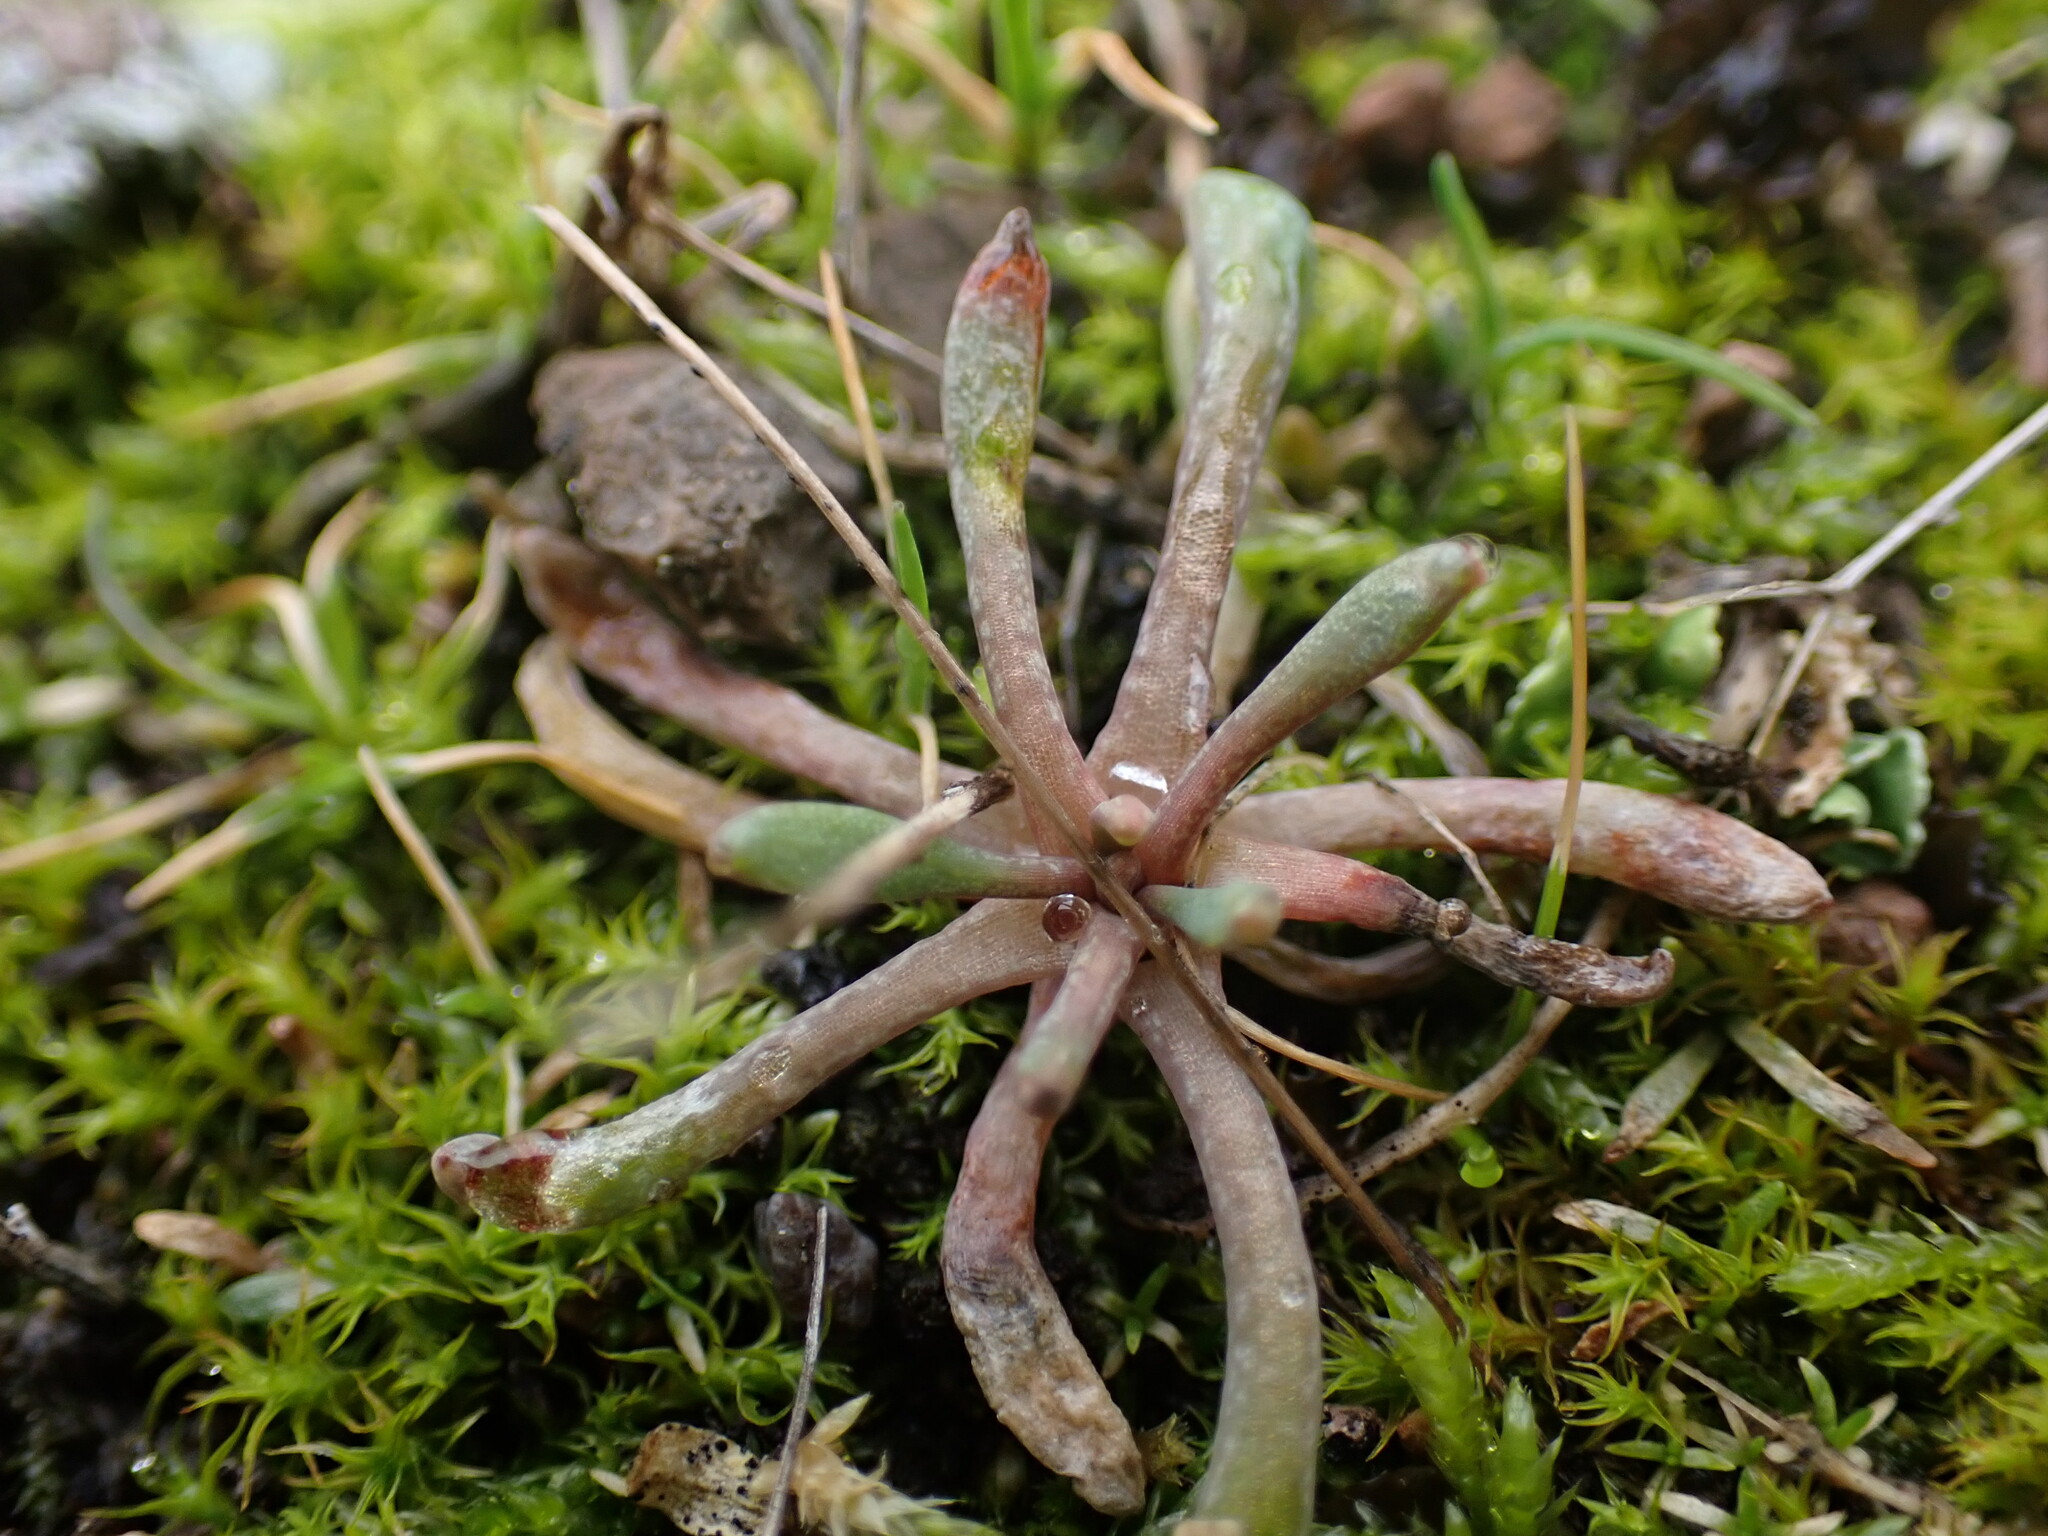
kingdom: Plantae
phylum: Tracheophyta
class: Magnoliopsida
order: Caryophyllales
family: Montiaceae
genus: Claytonia
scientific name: Claytonia exigua
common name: Pale spring beauty
